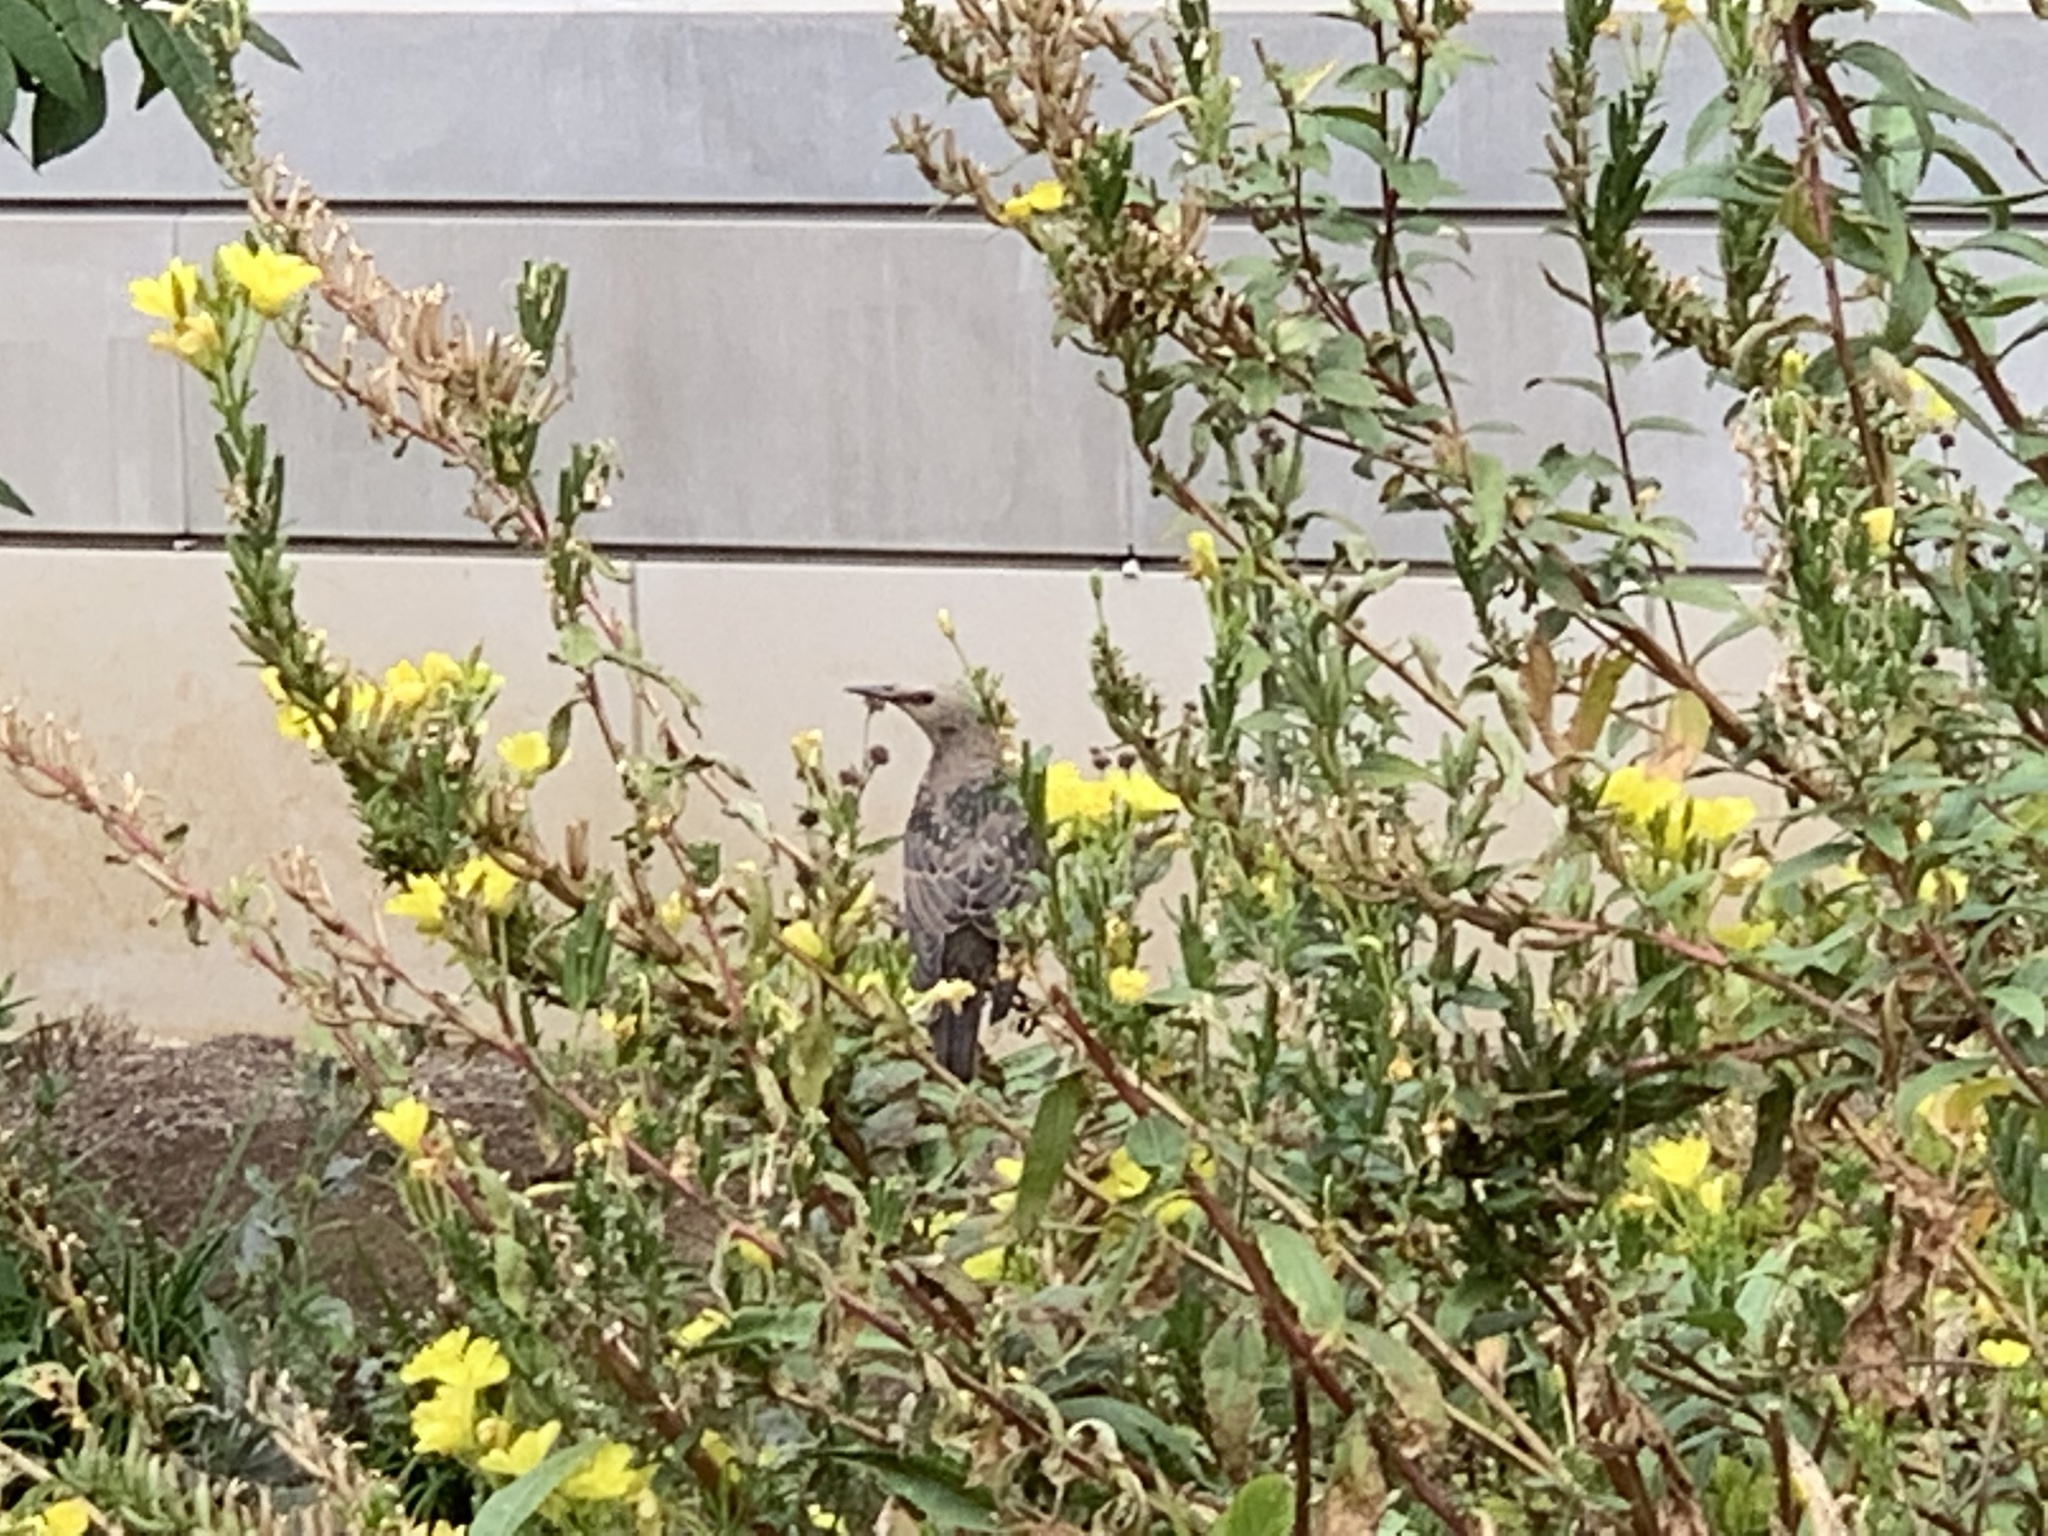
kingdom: Animalia
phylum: Chordata
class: Aves
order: Passeriformes
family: Sturnidae
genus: Sturnus
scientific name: Sturnus vulgaris
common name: Common starling
